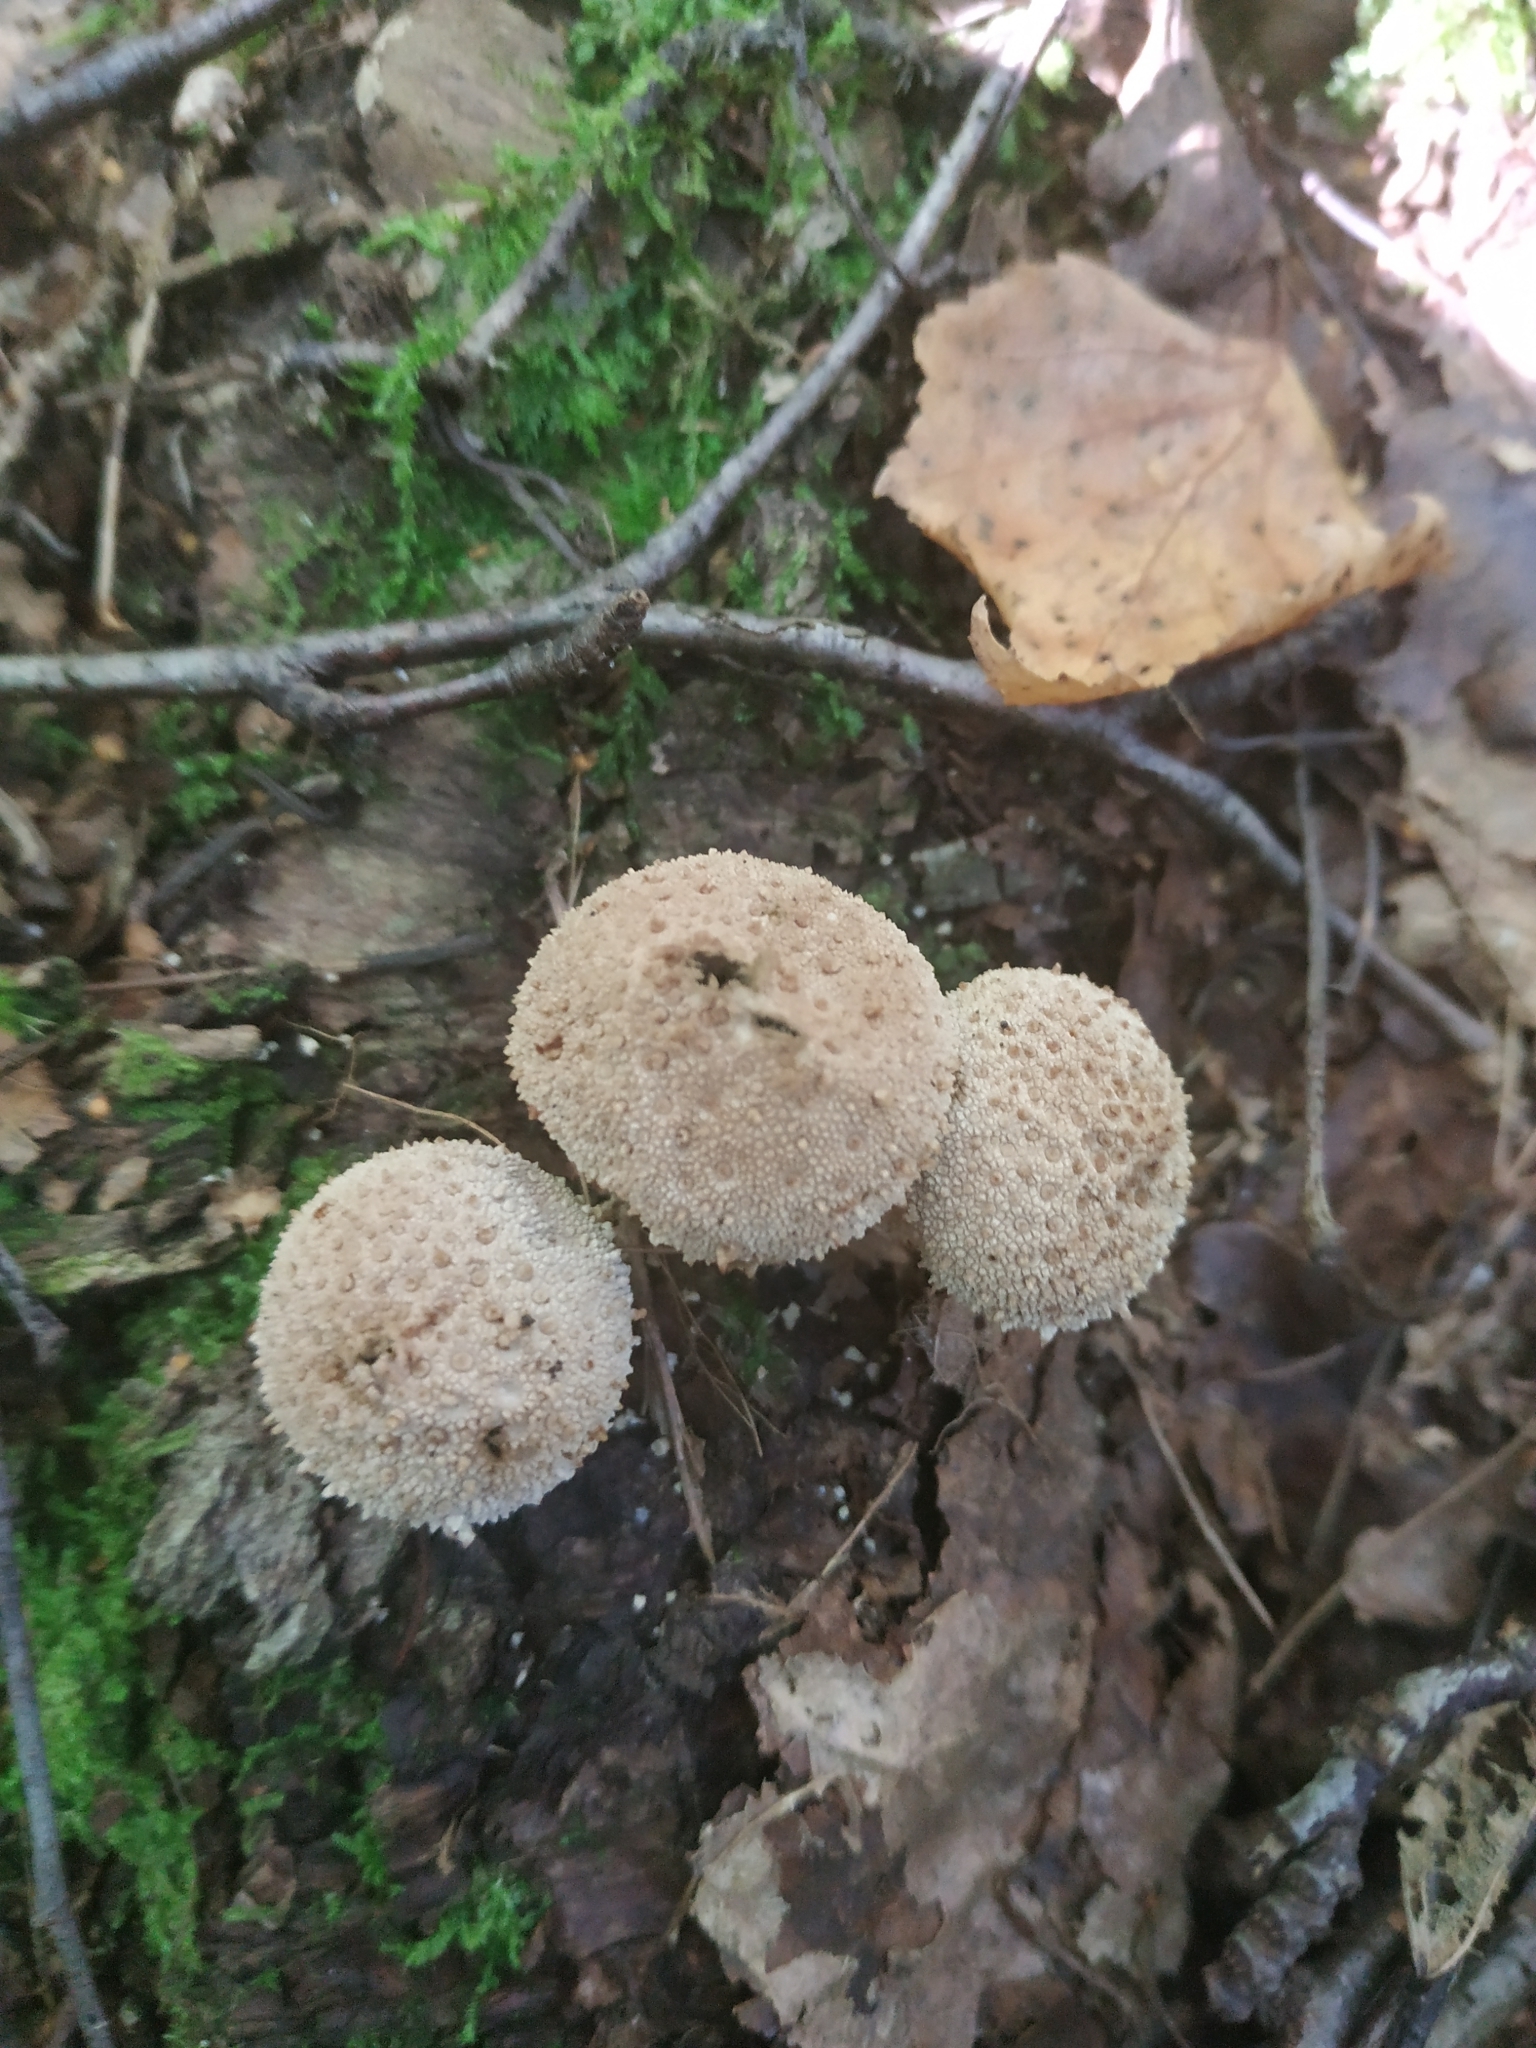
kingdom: Fungi
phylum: Basidiomycota
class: Agaricomycetes
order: Agaricales
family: Lycoperdaceae
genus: Lycoperdon
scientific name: Lycoperdon perlatum
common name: Common puffball
